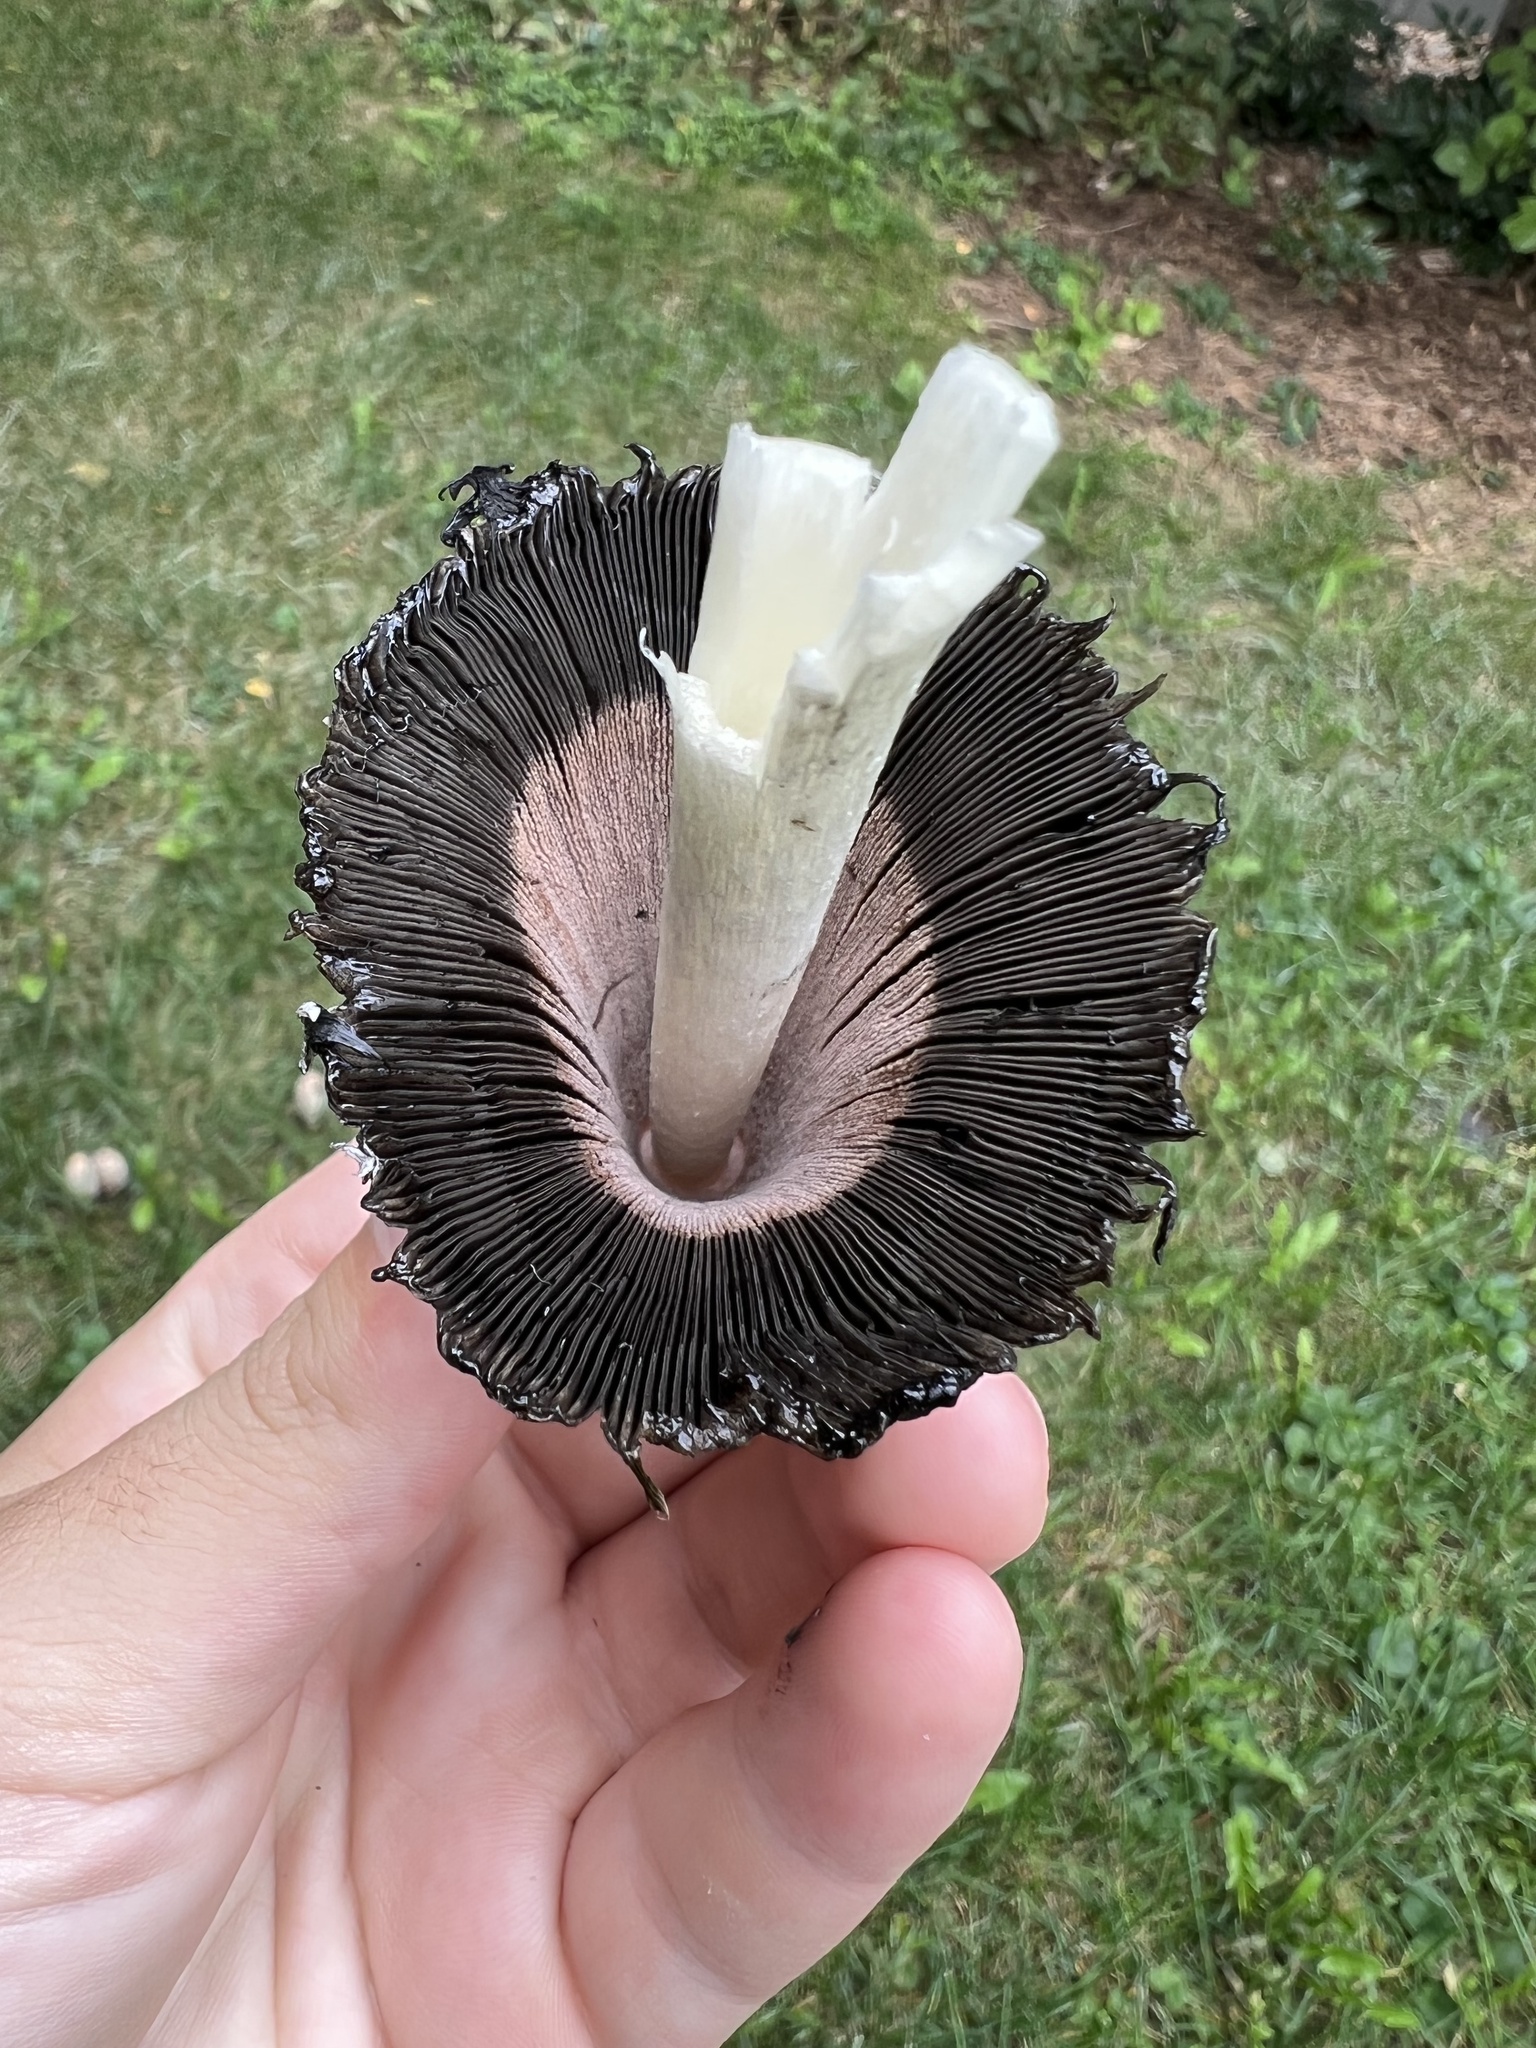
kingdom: Fungi
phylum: Basidiomycota
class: Agaricomycetes
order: Agaricales
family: Agaricaceae
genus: Coprinus
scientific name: Coprinus comatus
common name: Lawyer's wig
